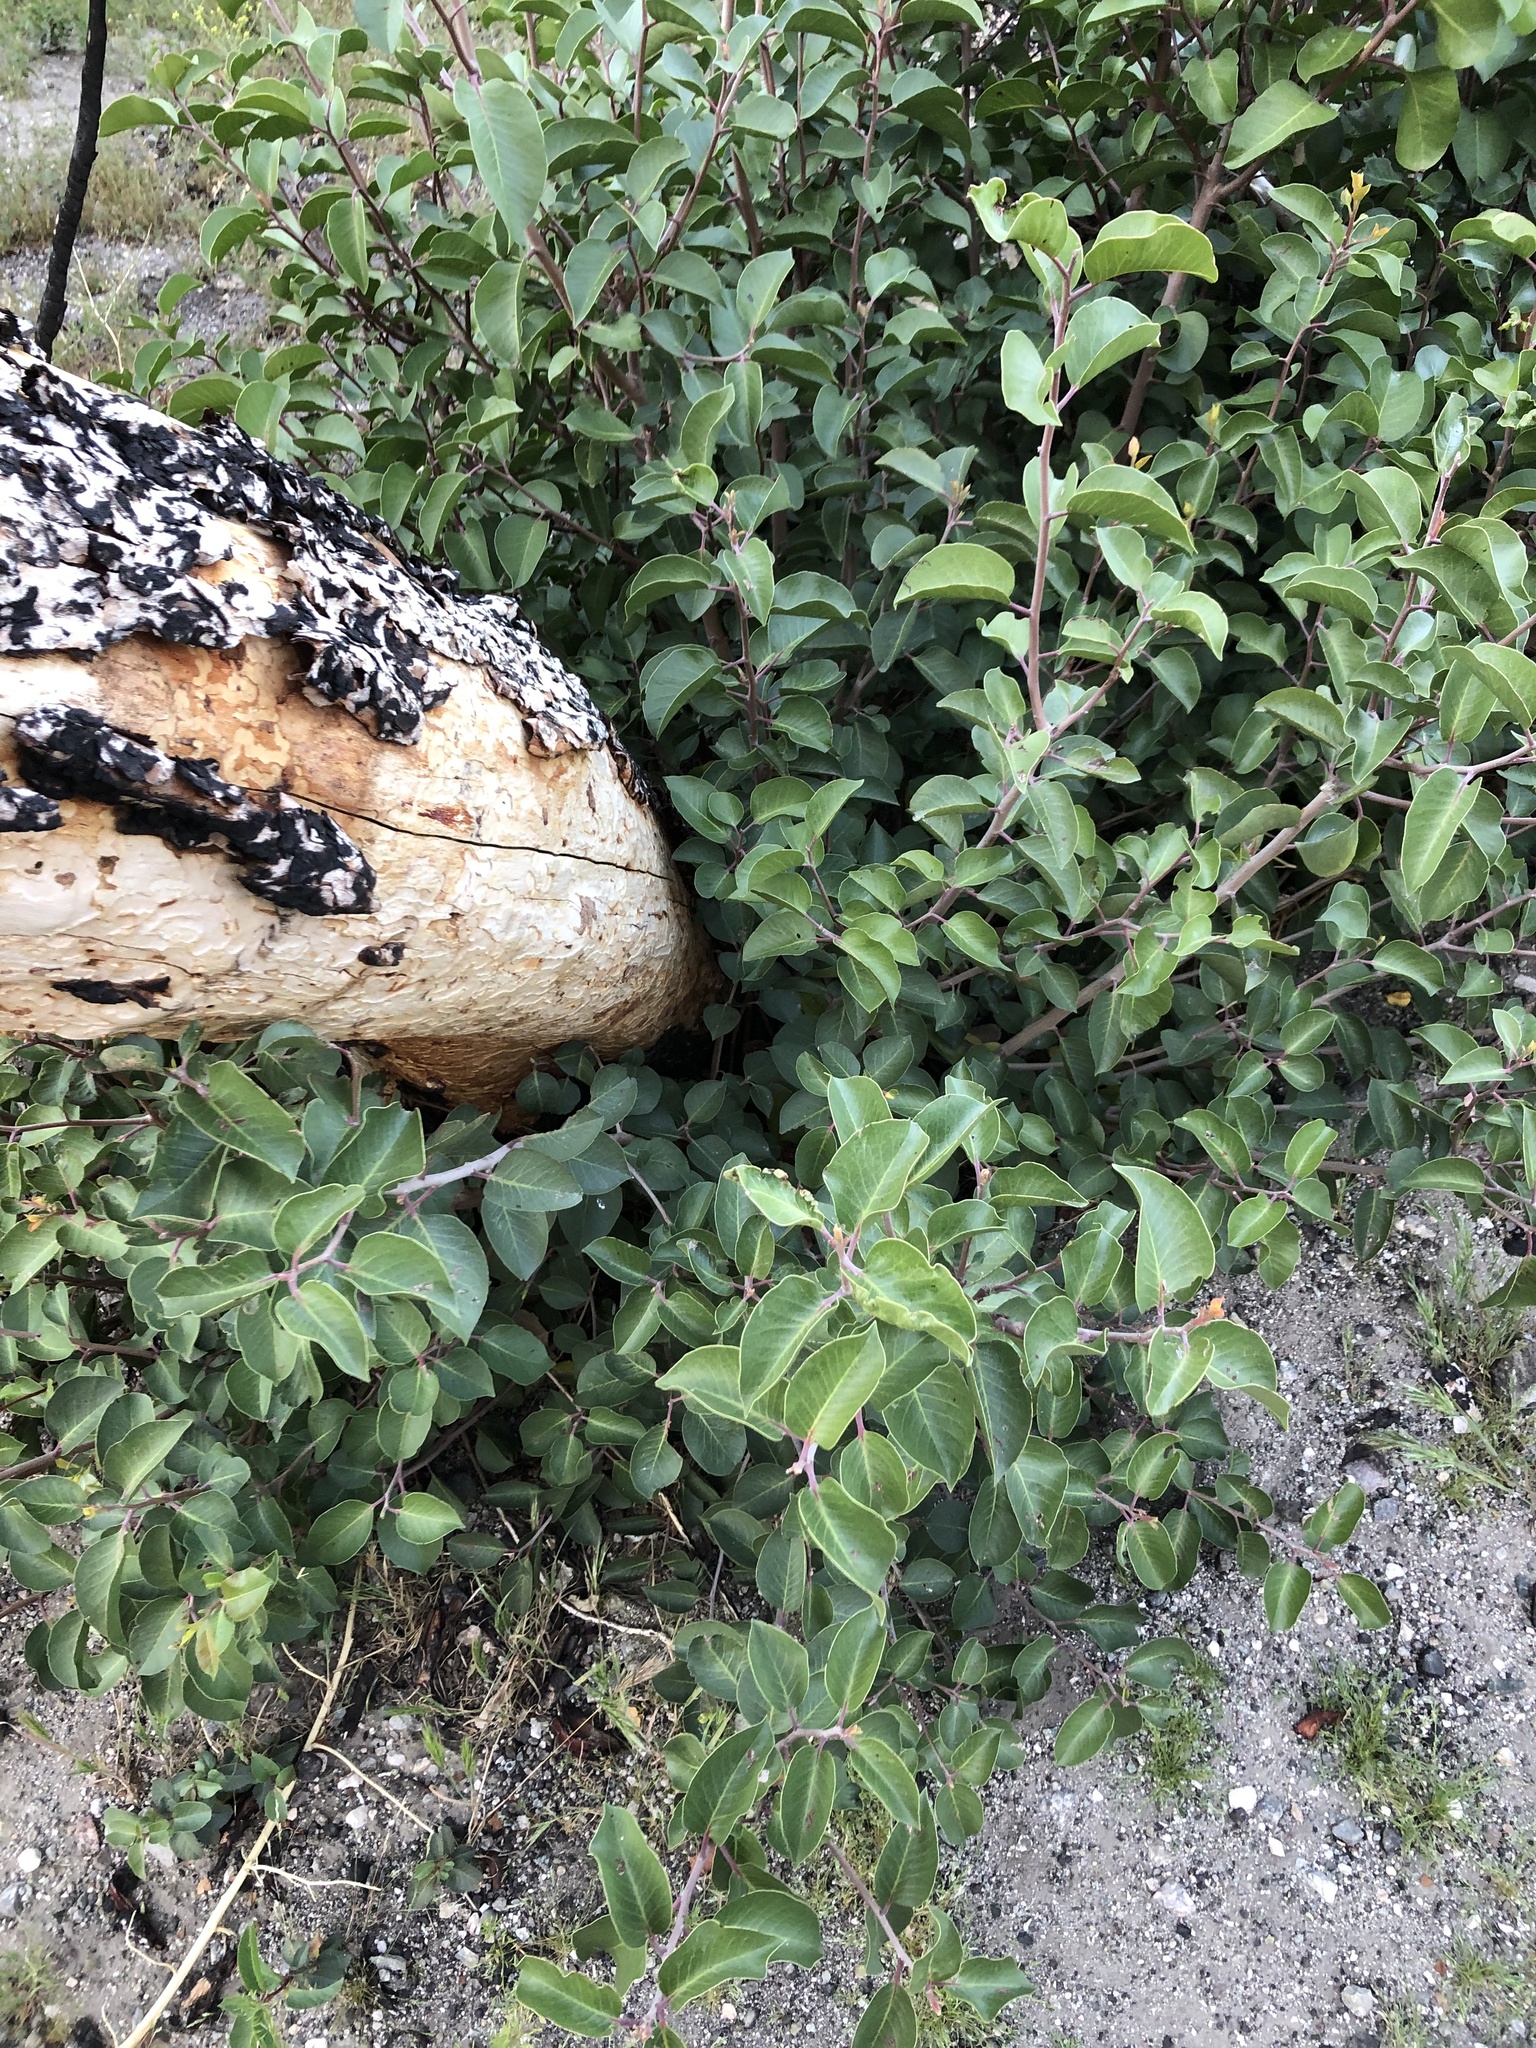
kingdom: Plantae
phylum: Tracheophyta
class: Magnoliopsida
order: Sapindales
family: Anacardiaceae
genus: Rhus
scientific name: Rhus ovata
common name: Sugar sumac
